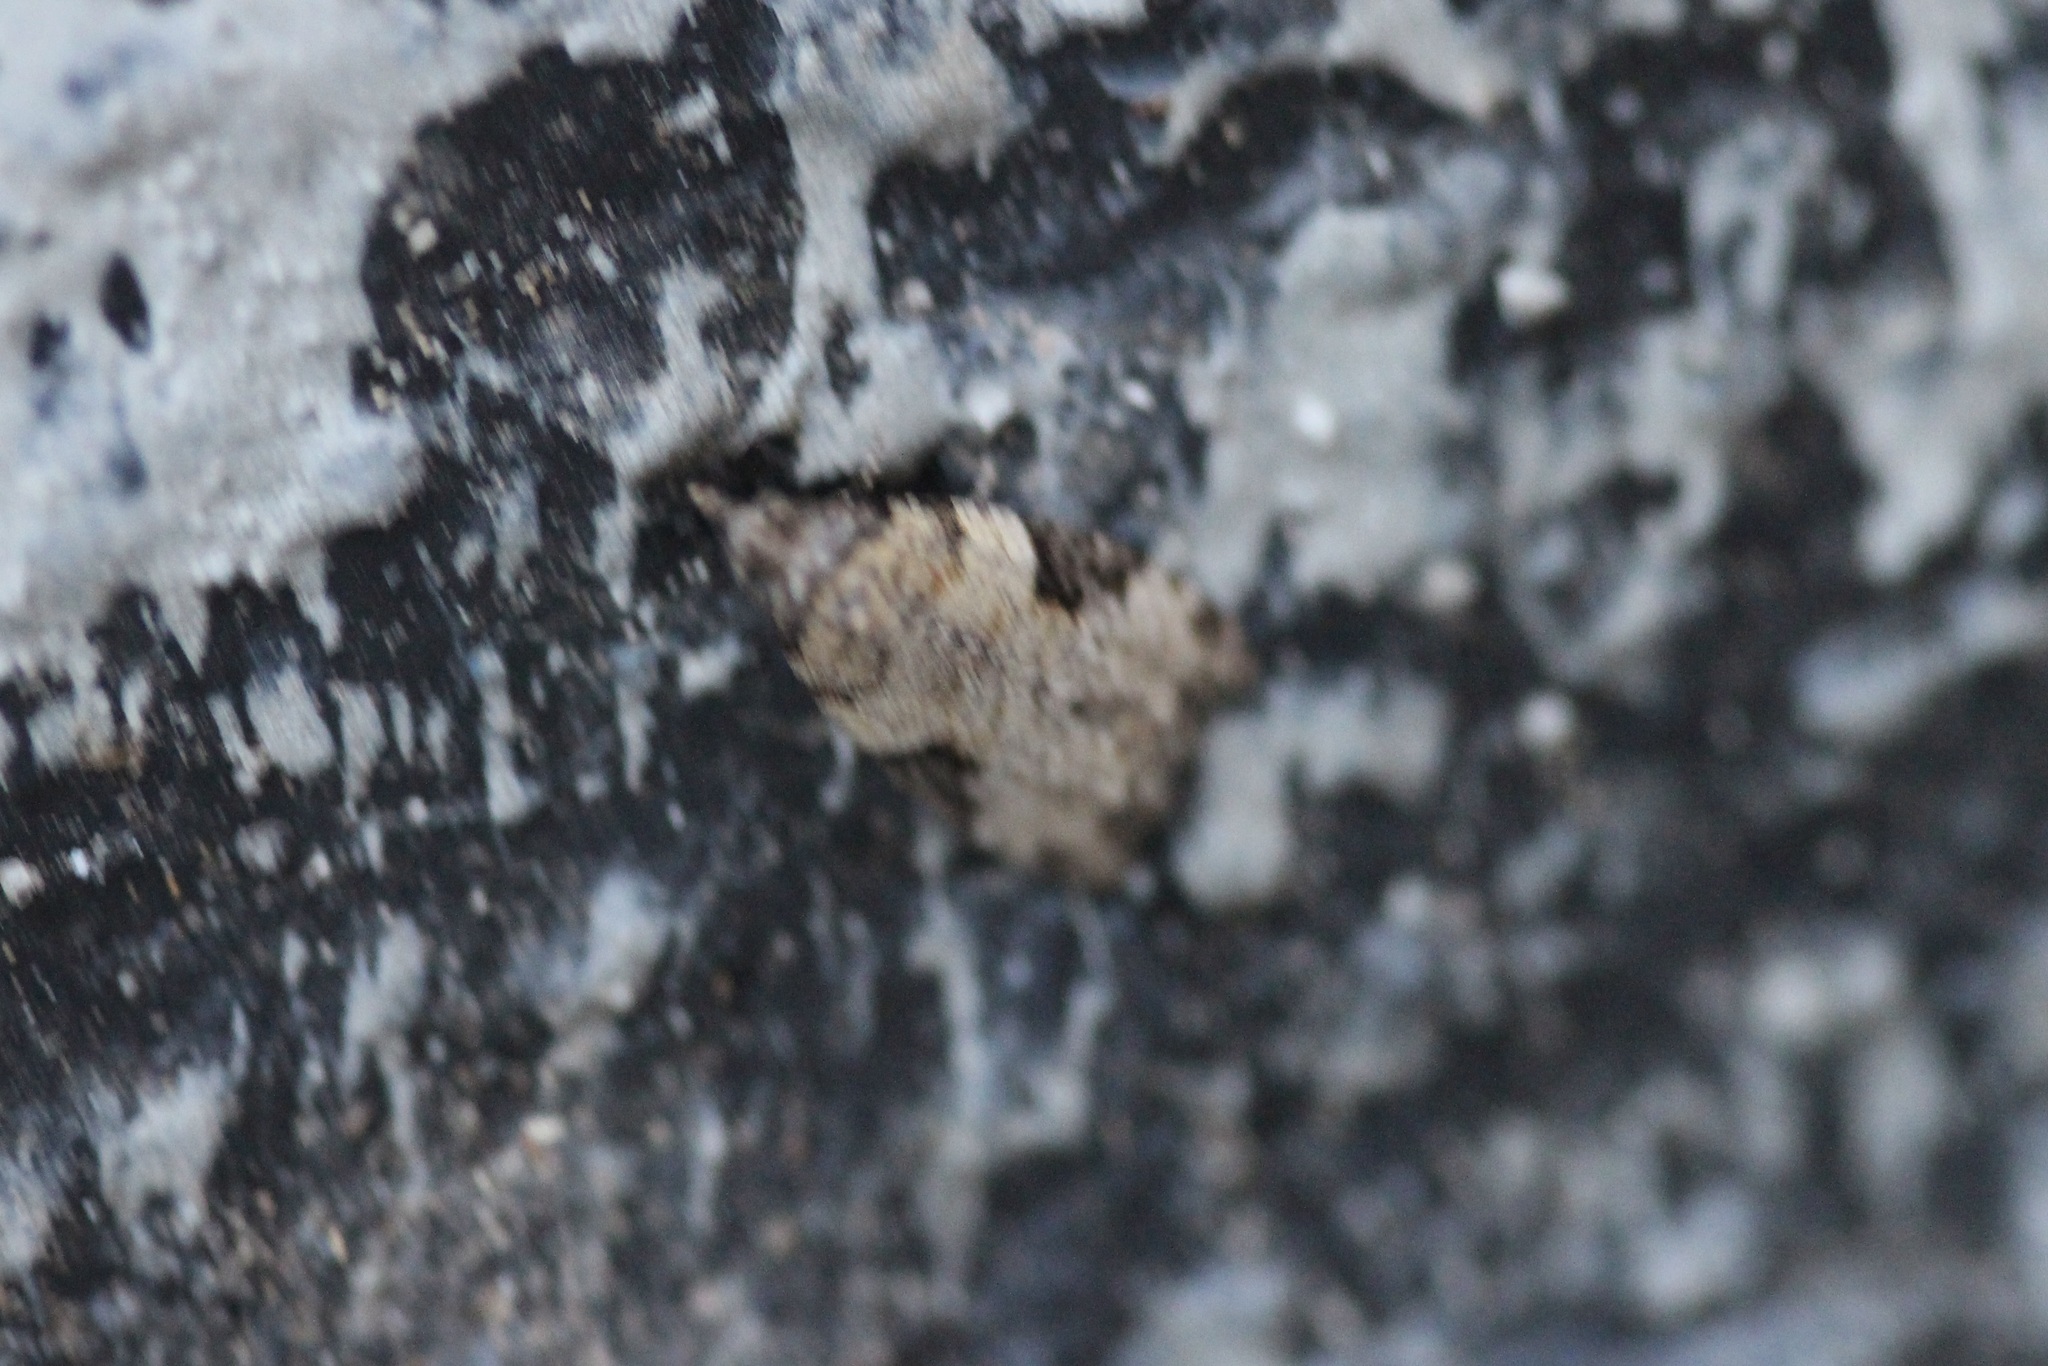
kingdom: Animalia
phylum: Arthropoda
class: Insecta
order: Lepidoptera
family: Tortricidae
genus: Anopina
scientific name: Anopina triangulana
